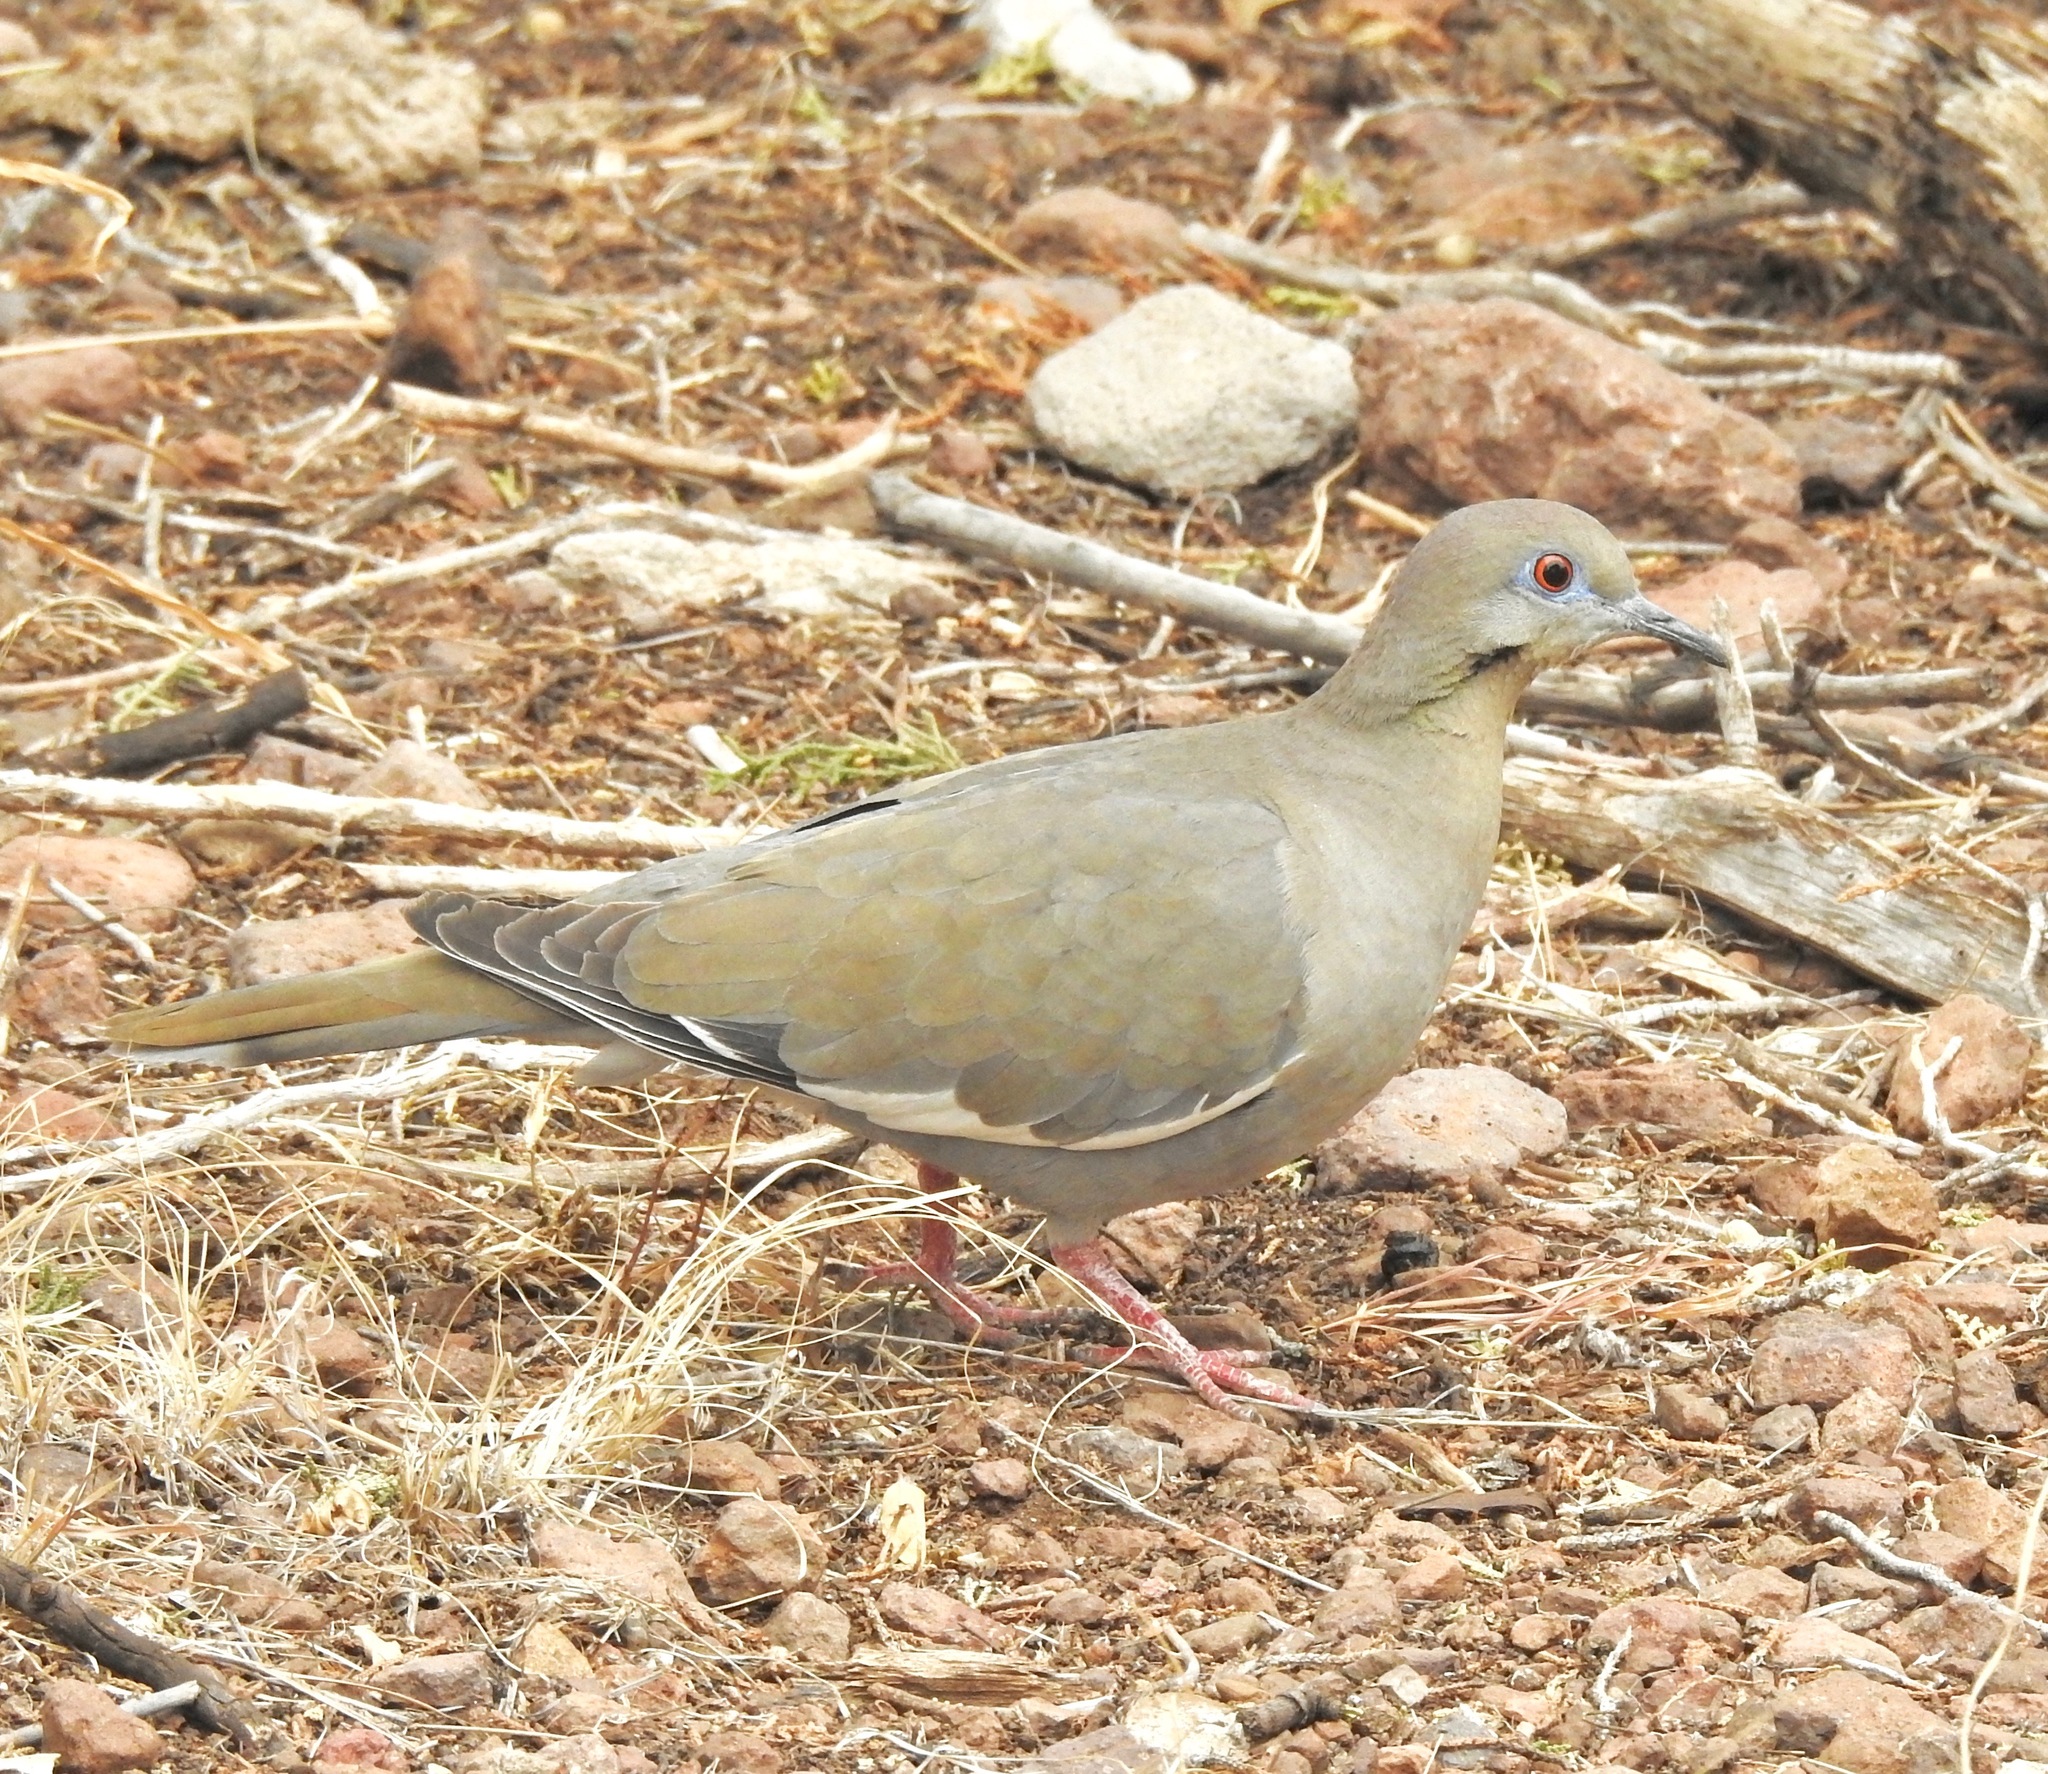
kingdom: Animalia
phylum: Chordata
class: Aves
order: Columbiformes
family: Columbidae
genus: Zenaida
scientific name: Zenaida asiatica
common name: White-winged dove
